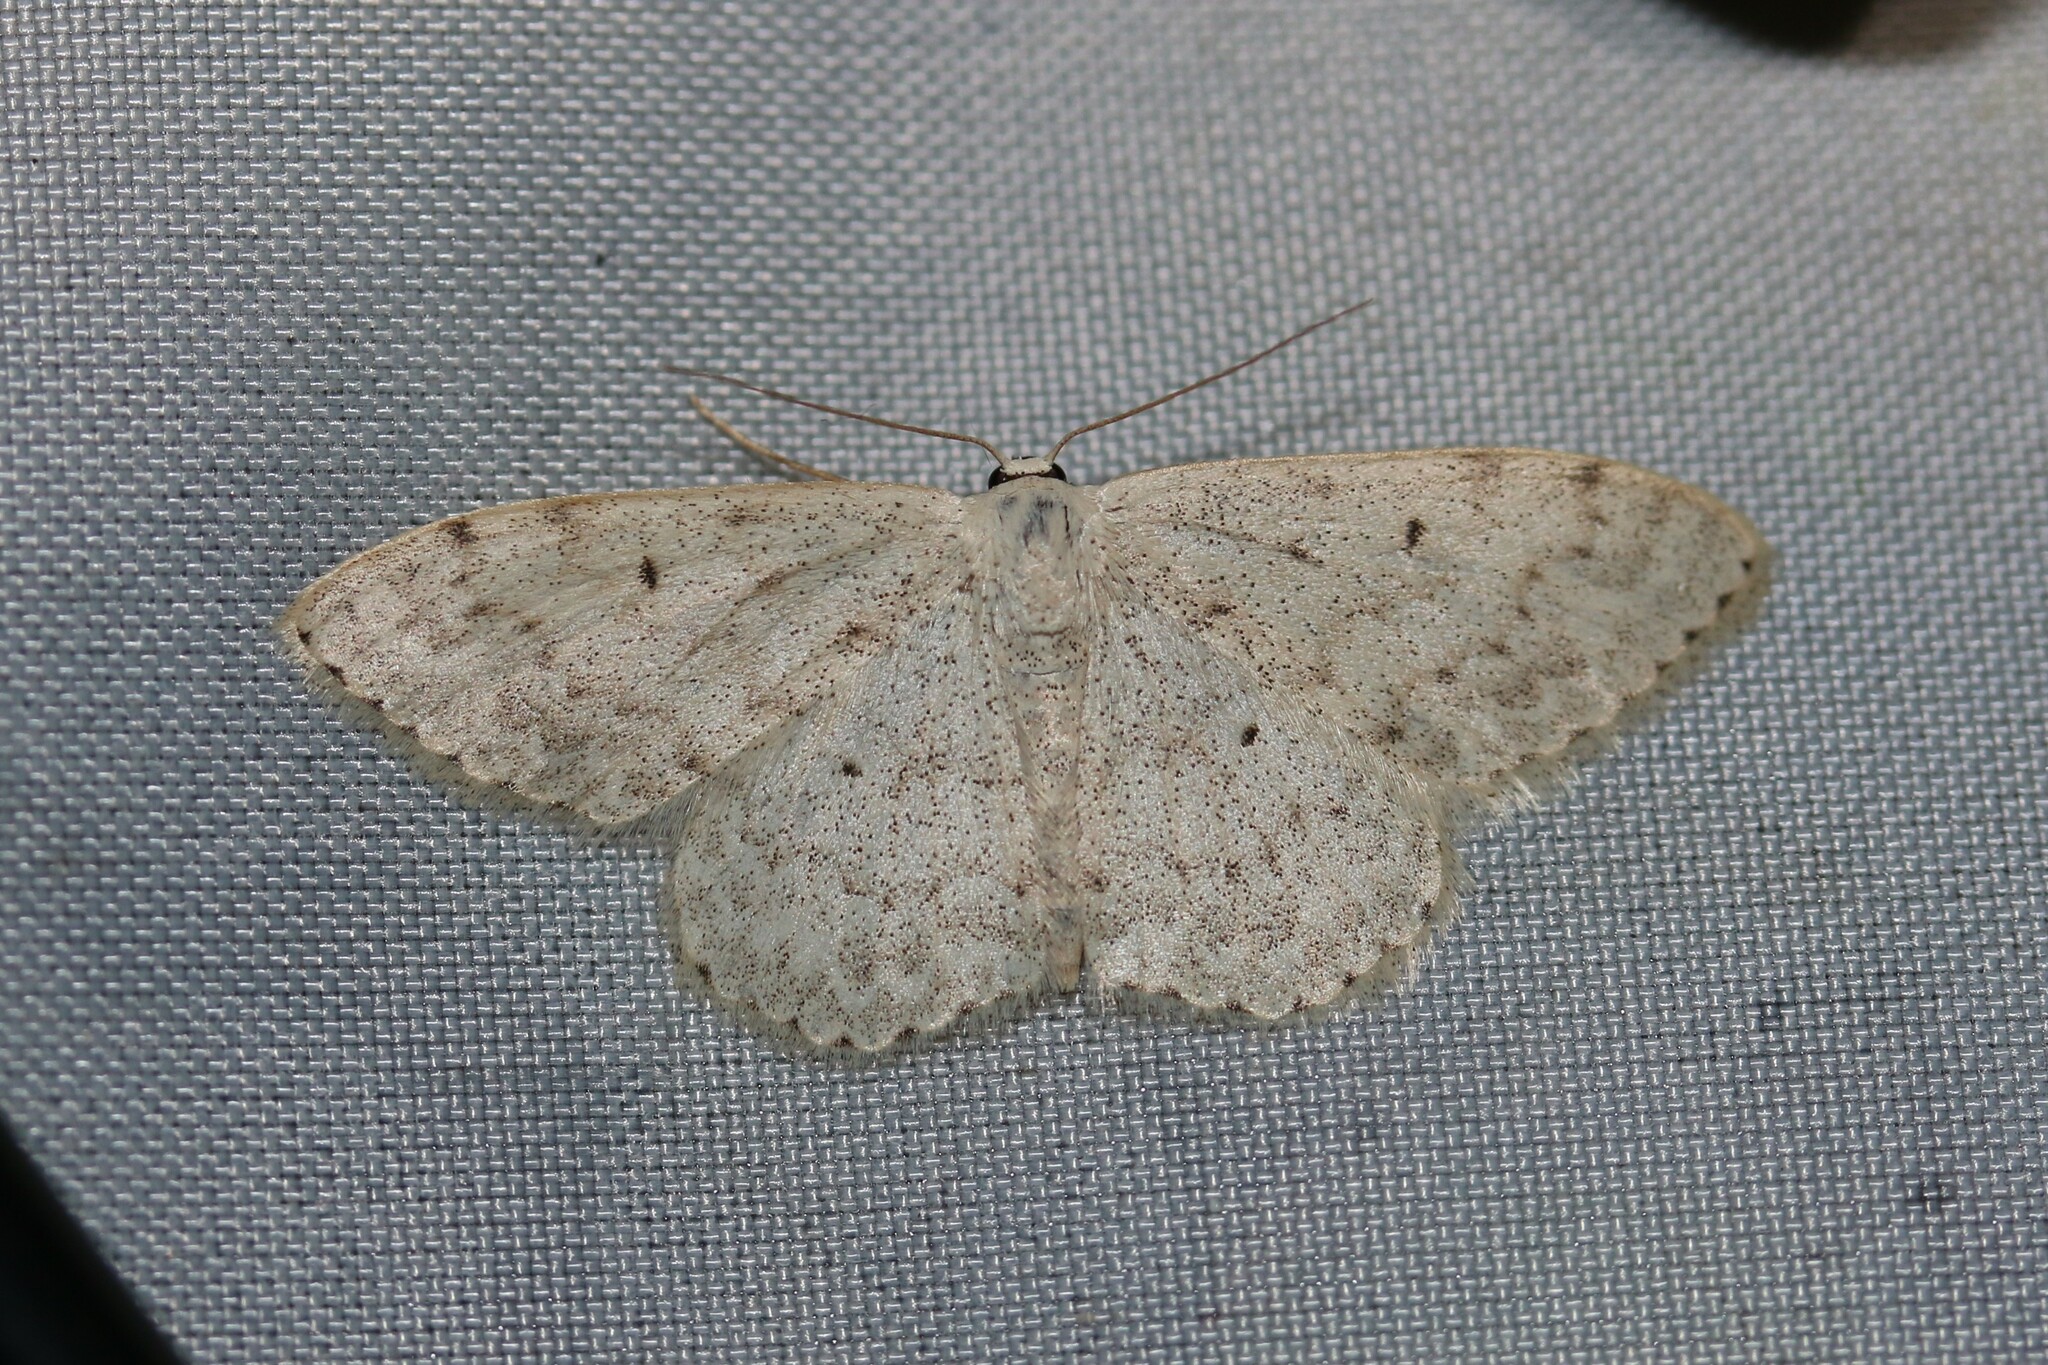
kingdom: Animalia
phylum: Arthropoda
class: Insecta
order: Lepidoptera
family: Geometridae
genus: Scopula
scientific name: Scopula marginepunctata
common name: Mullein wave
